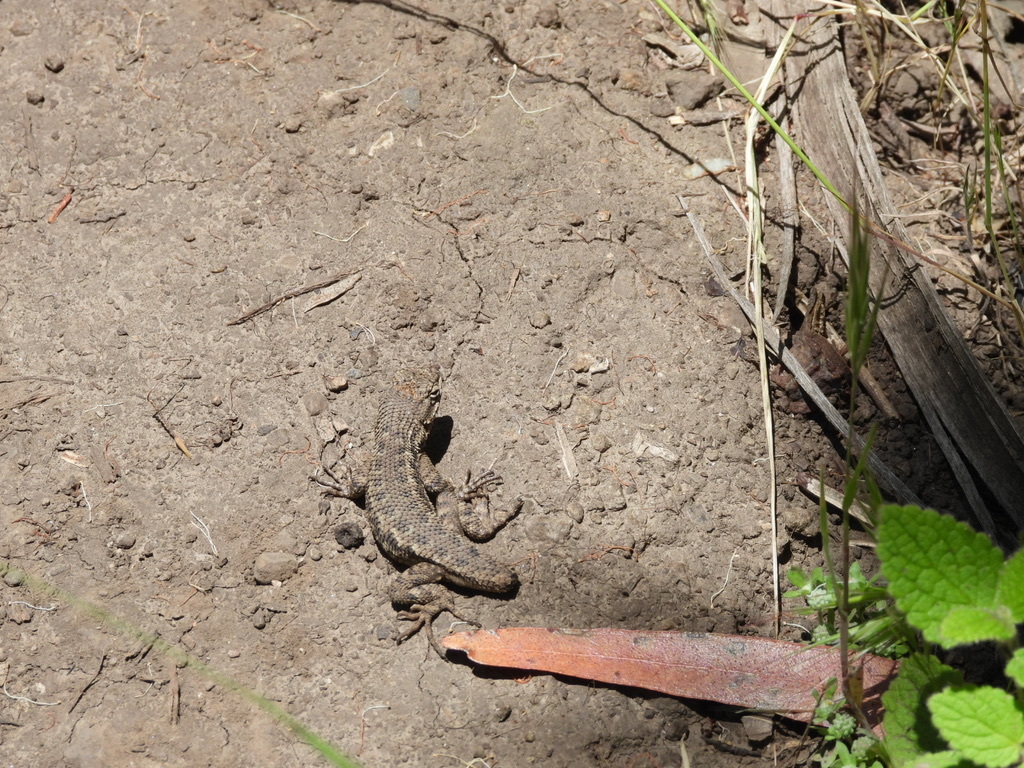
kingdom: Animalia
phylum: Chordata
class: Squamata
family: Phrynosomatidae
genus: Sceloporus
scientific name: Sceloporus occidentalis
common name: Western fence lizard
